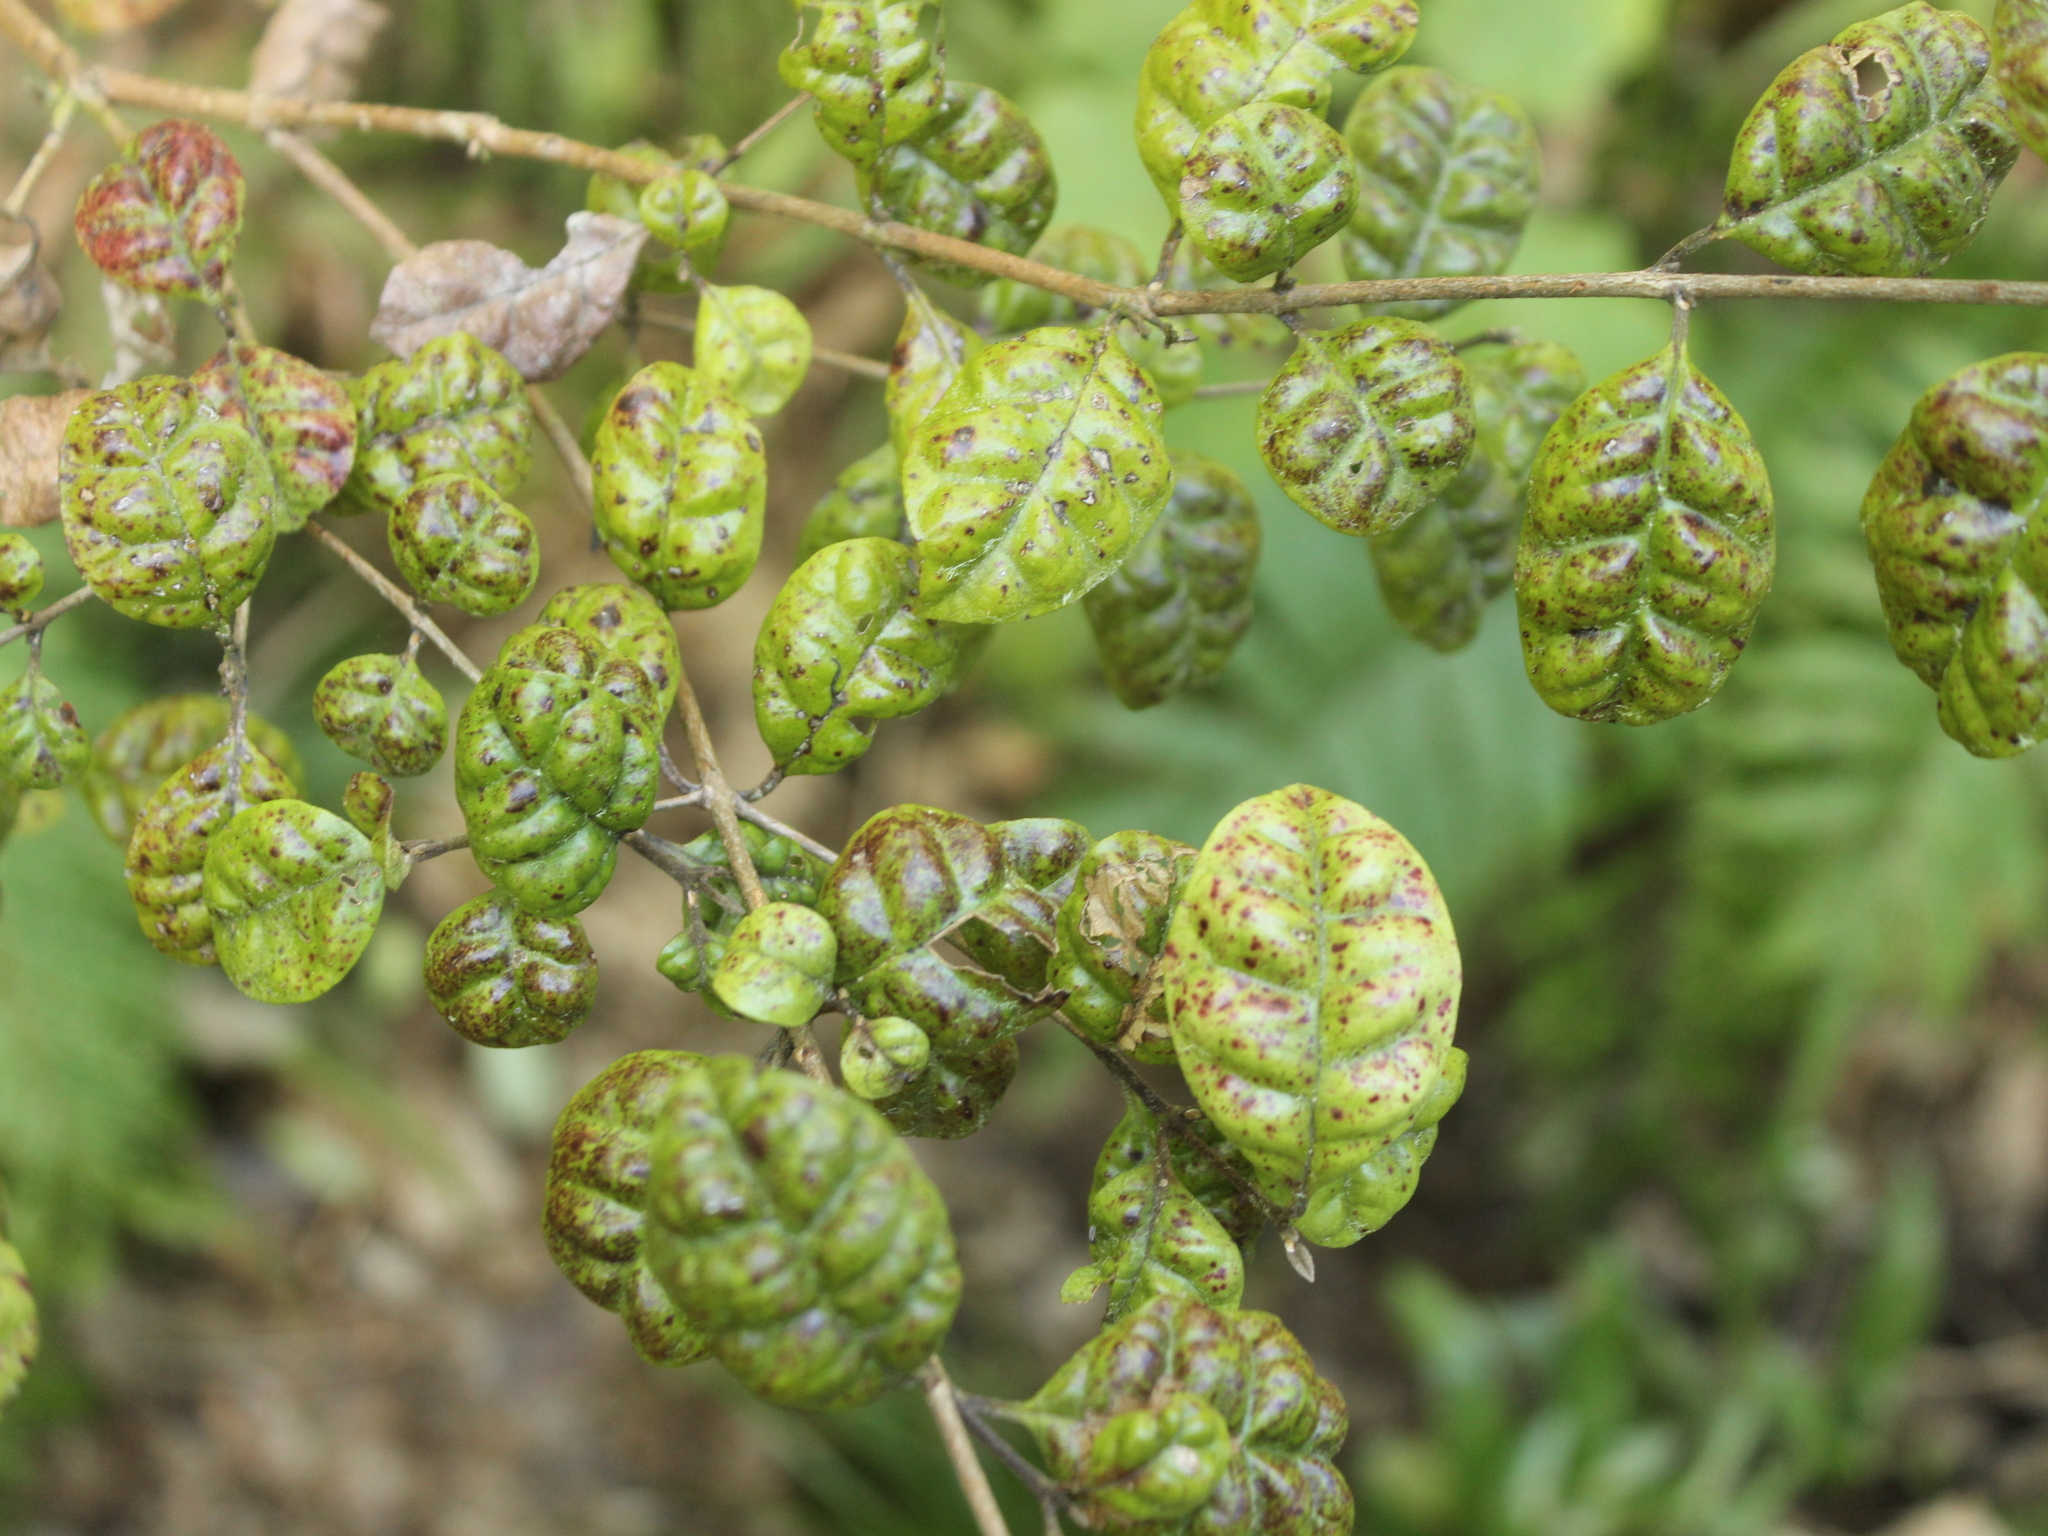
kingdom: Plantae
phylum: Tracheophyta
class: Magnoliopsida
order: Myrtales
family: Myrtaceae
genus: Lophomyrtus
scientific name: Lophomyrtus bullata
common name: Rama rama
